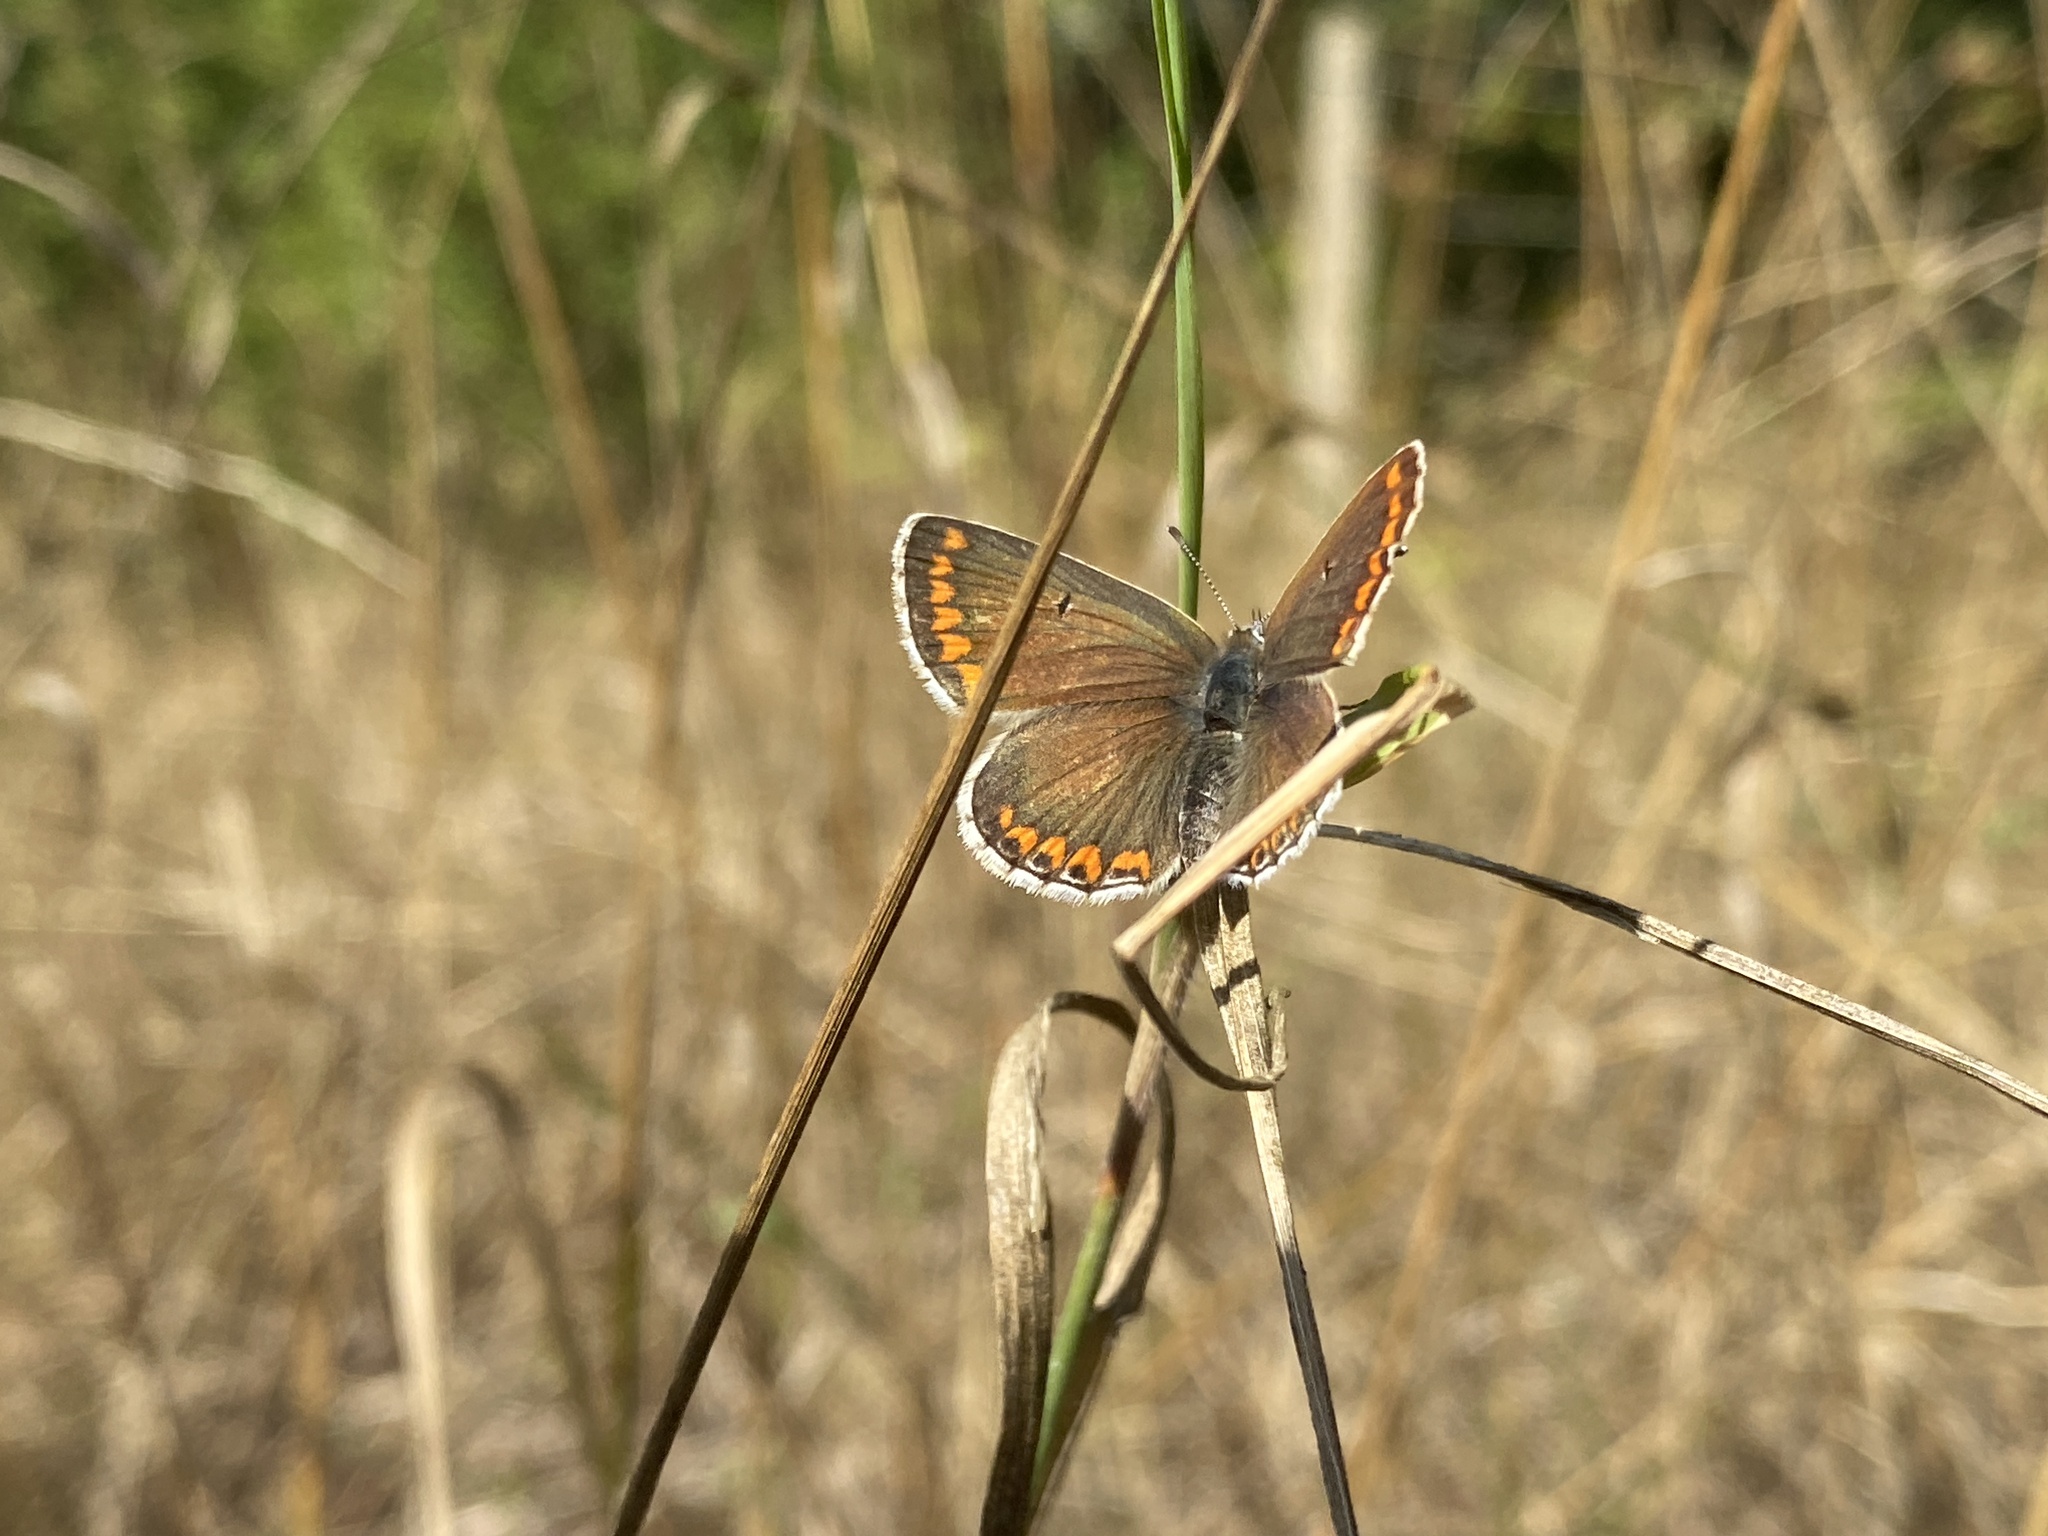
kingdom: Animalia
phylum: Arthropoda
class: Insecta
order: Lepidoptera
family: Lycaenidae
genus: Aricia
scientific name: Aricia agestis
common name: Brown argus
